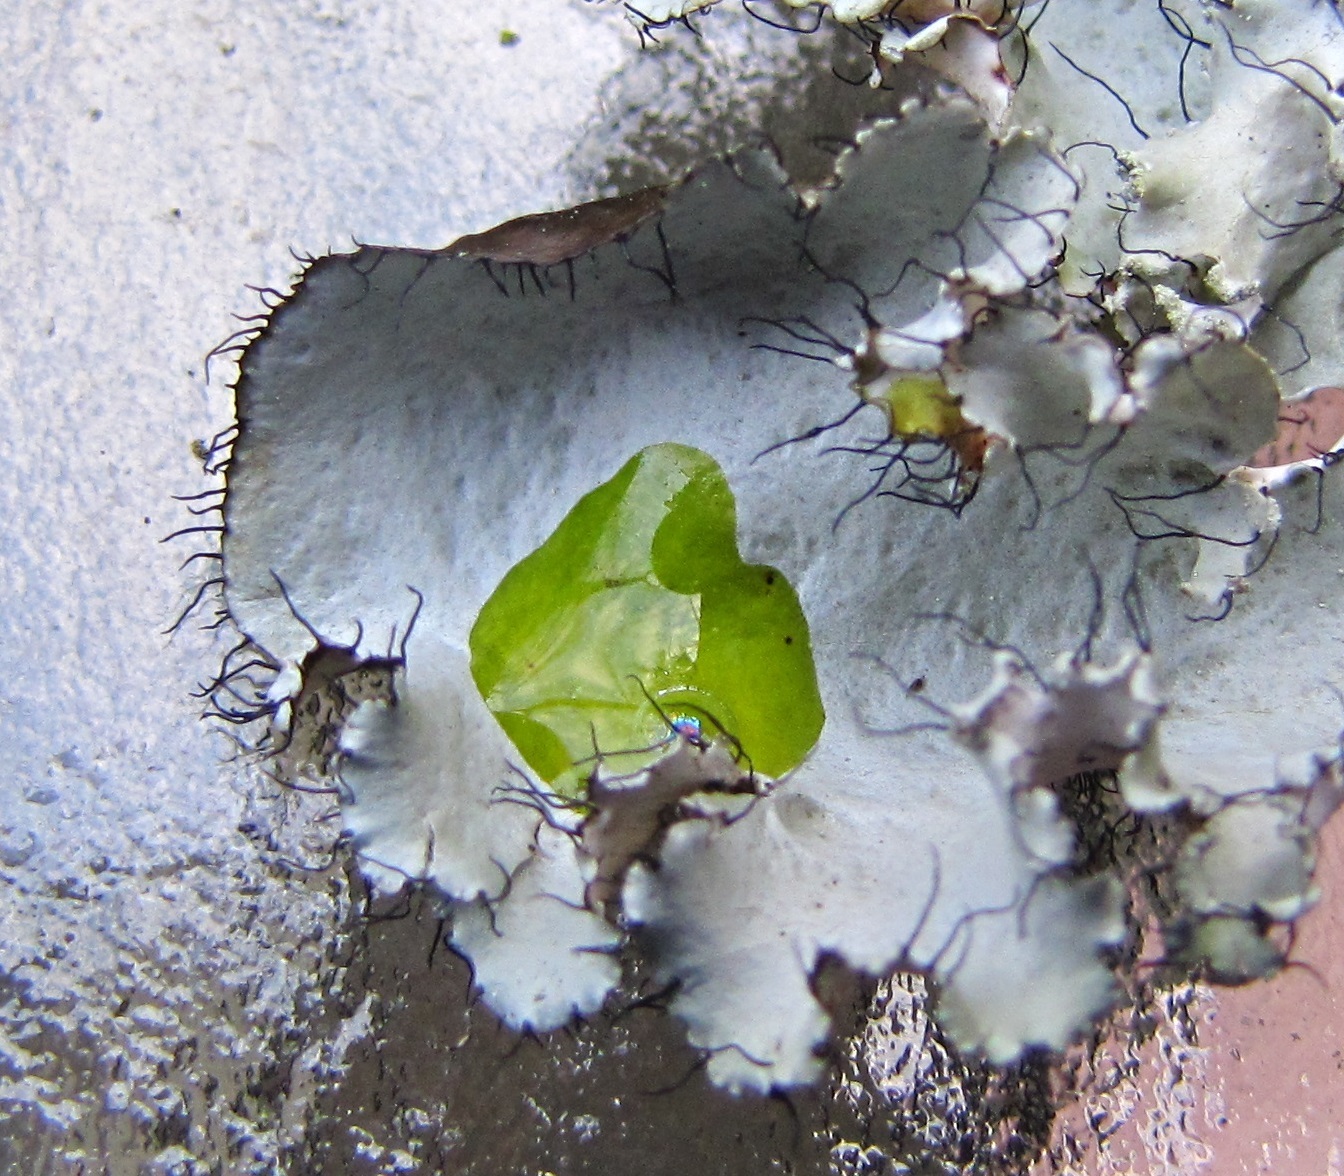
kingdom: Fungi
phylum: Ascomycota
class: Lecanoromycetes
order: Lecanorales
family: Parmeliaceae
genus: Parmotrema
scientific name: Parmotrema perforatum
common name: Perforated ruffle lichen
